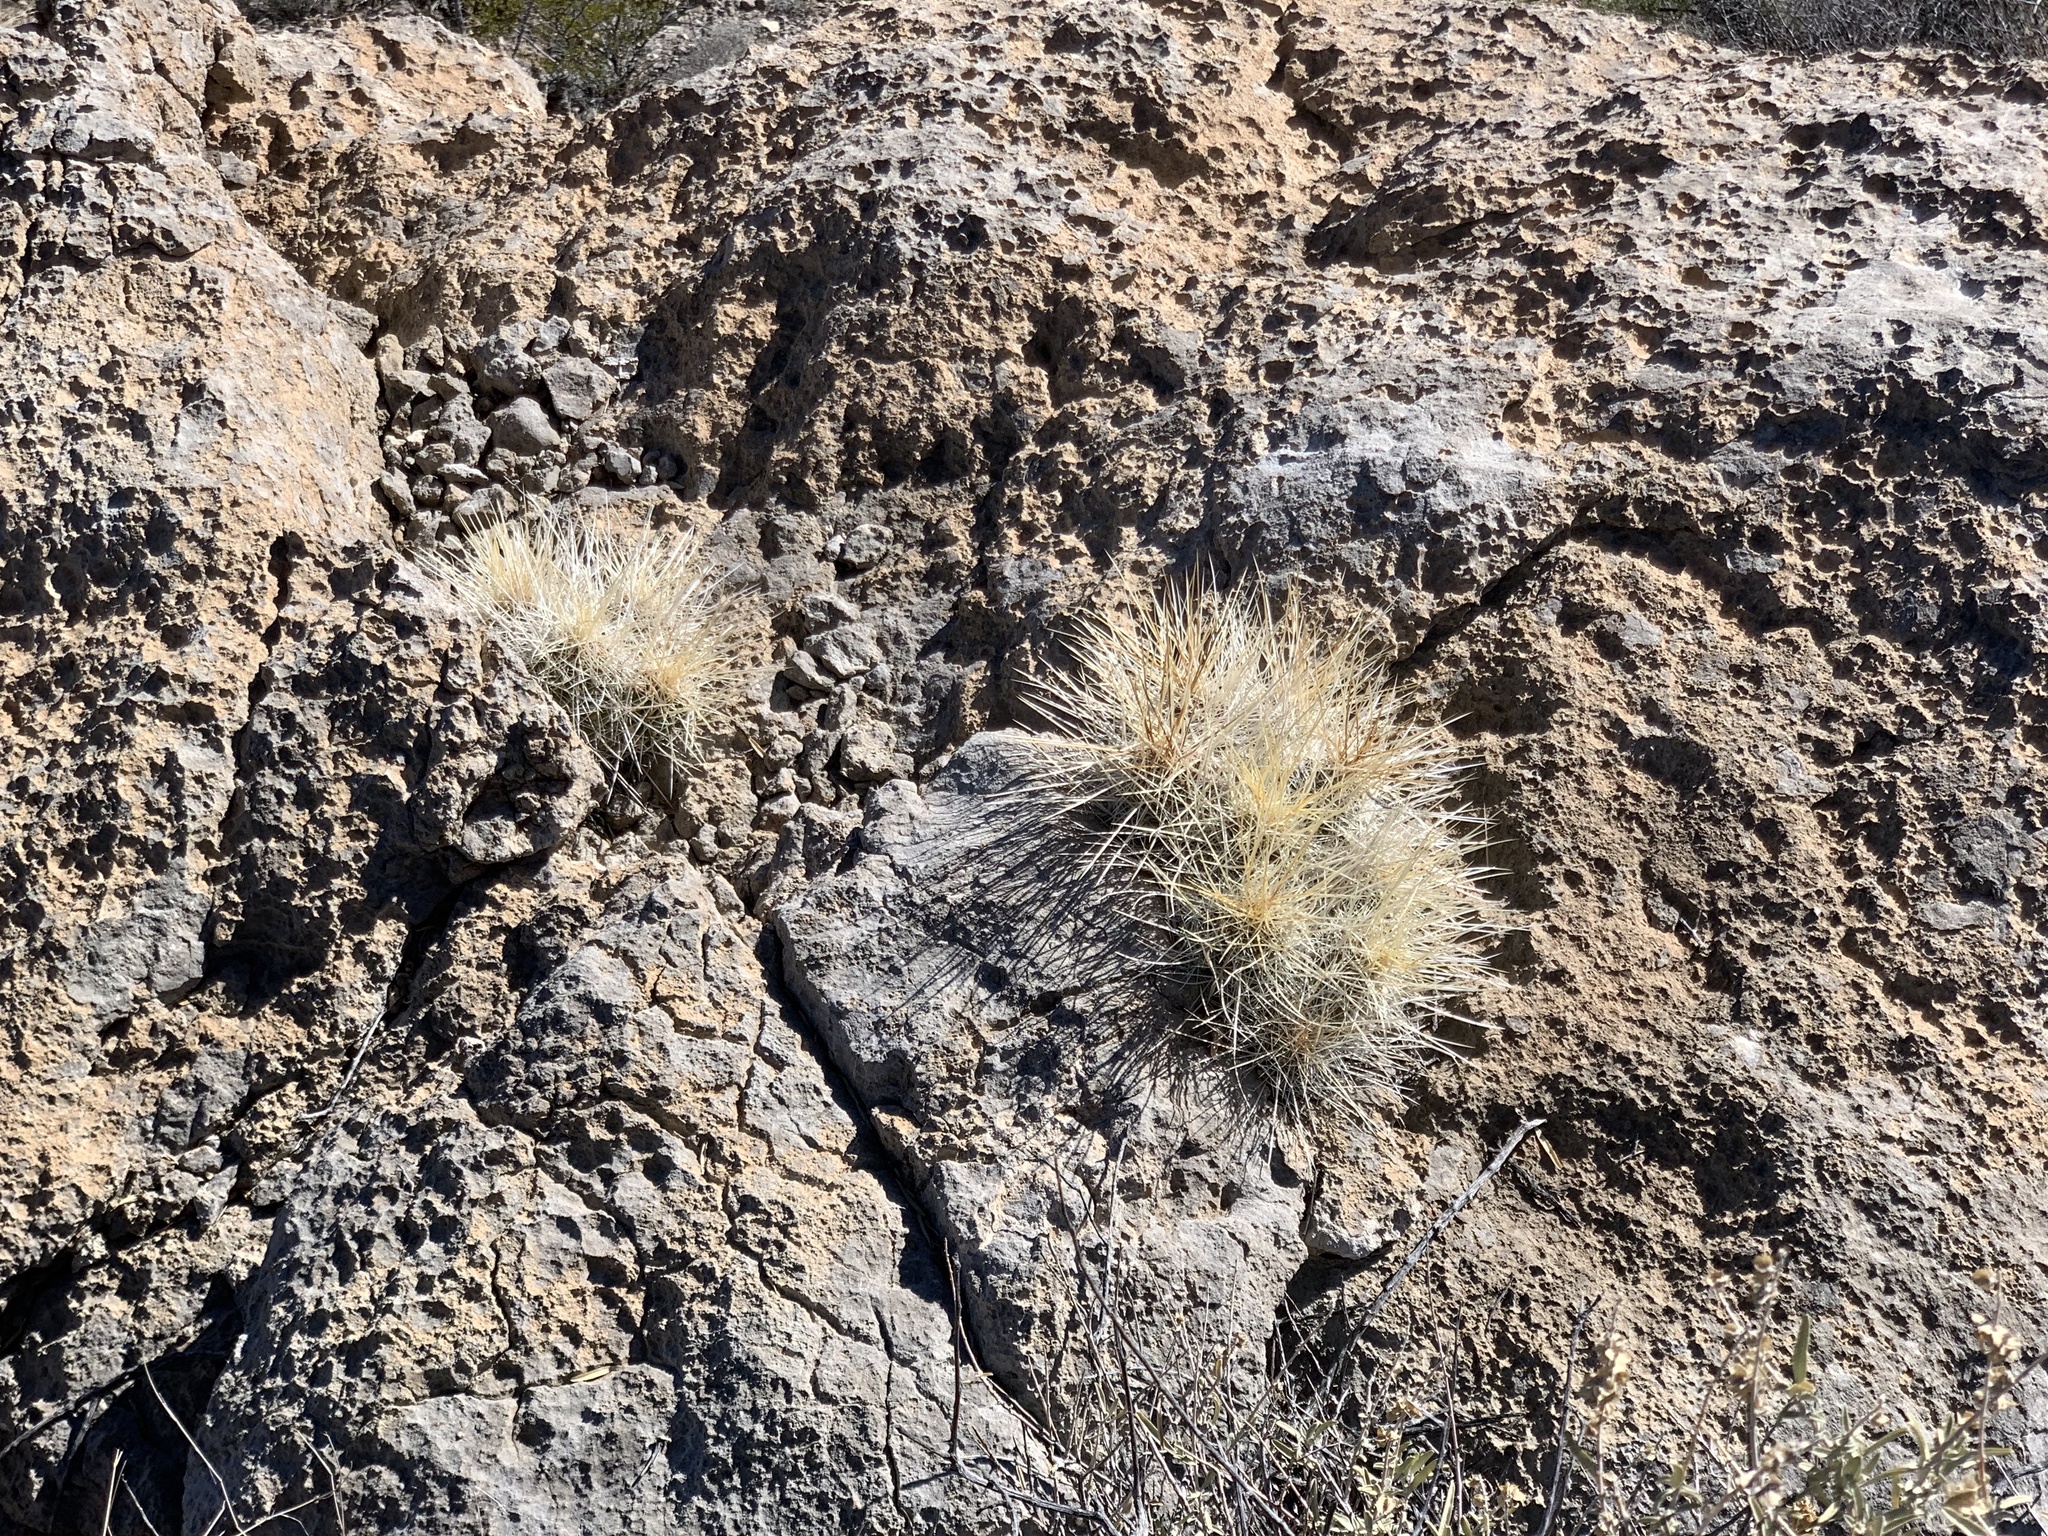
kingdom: Plantae
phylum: Tracheophyta
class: Magnoliopsida
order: Caryophyllales
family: Cactaceae
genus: Echinocereus
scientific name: Echinocereus stramineus
